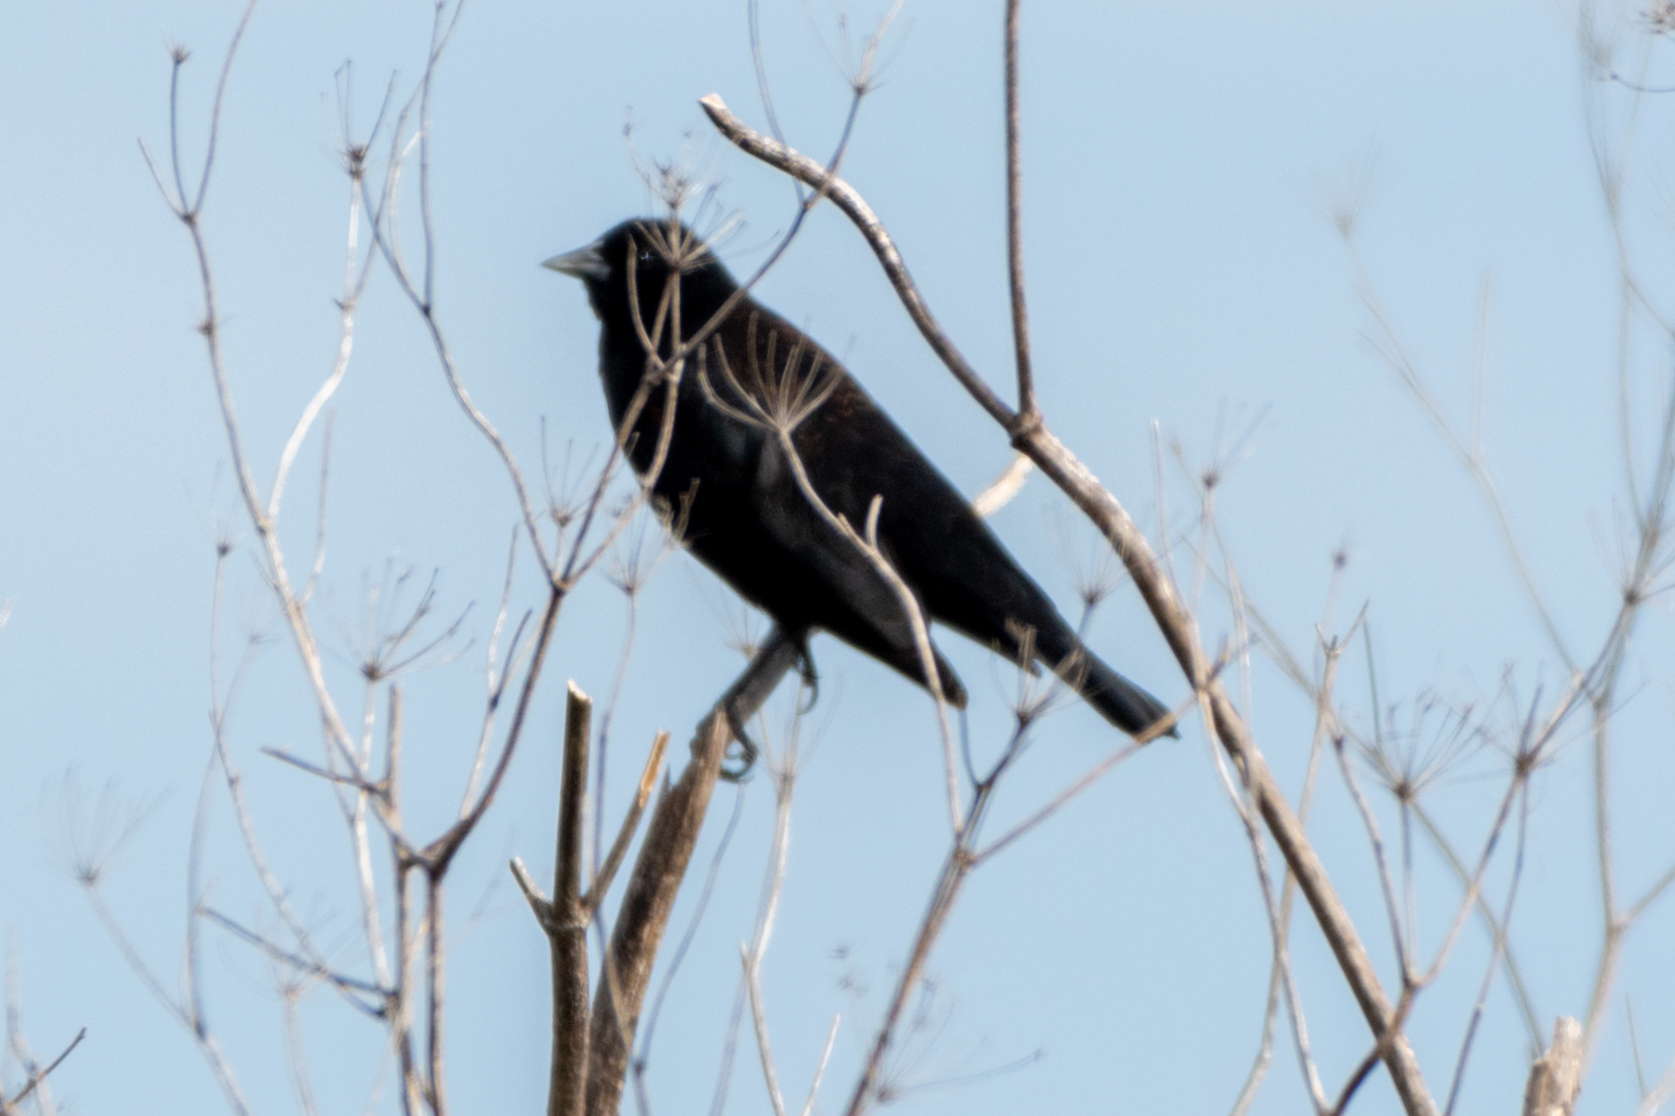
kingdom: Animalia
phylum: Chordata
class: Aves
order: Passeriformes
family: Icteridae
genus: Agelaius
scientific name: Agelaius phoeniceus
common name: Red-winged blackbird
